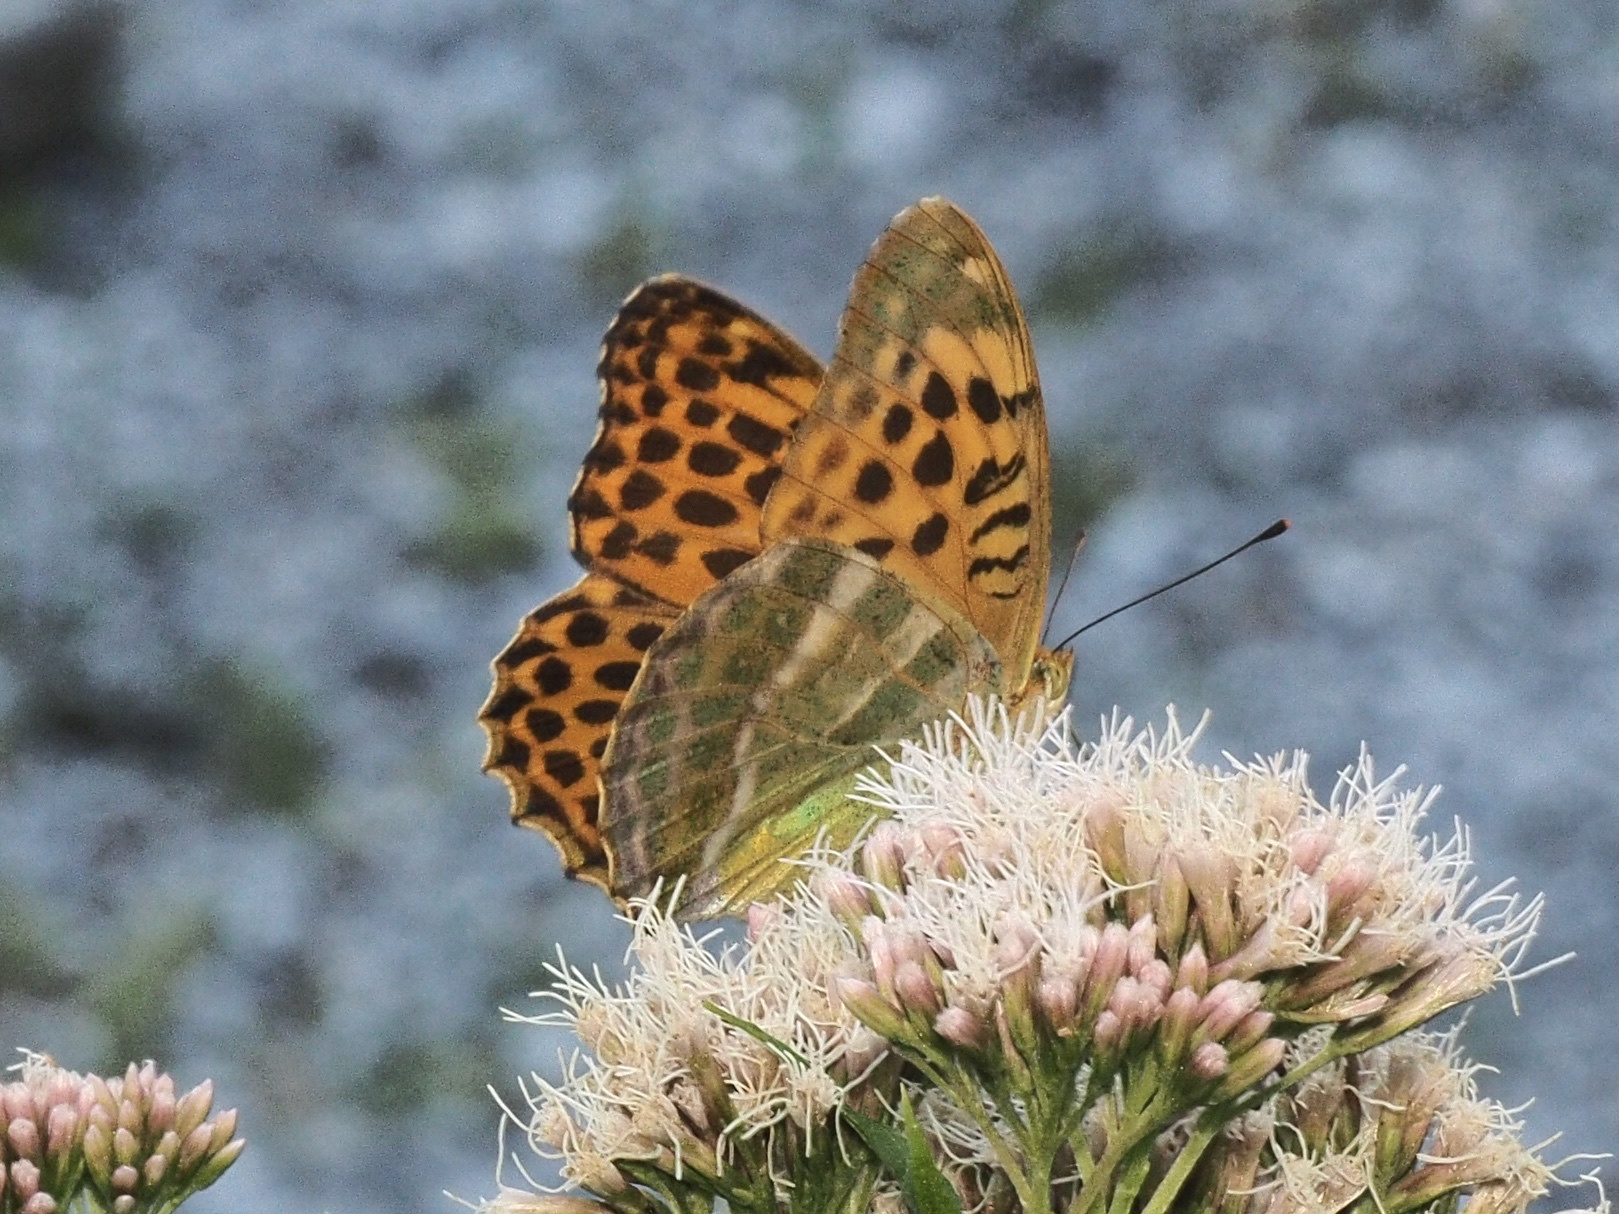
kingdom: Animalia
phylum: Arthropoda
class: Insecta
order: Lepidoptera
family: Nymphalidae
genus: Argynnis
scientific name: Argynnis paphia
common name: Silver-washed fritillary
